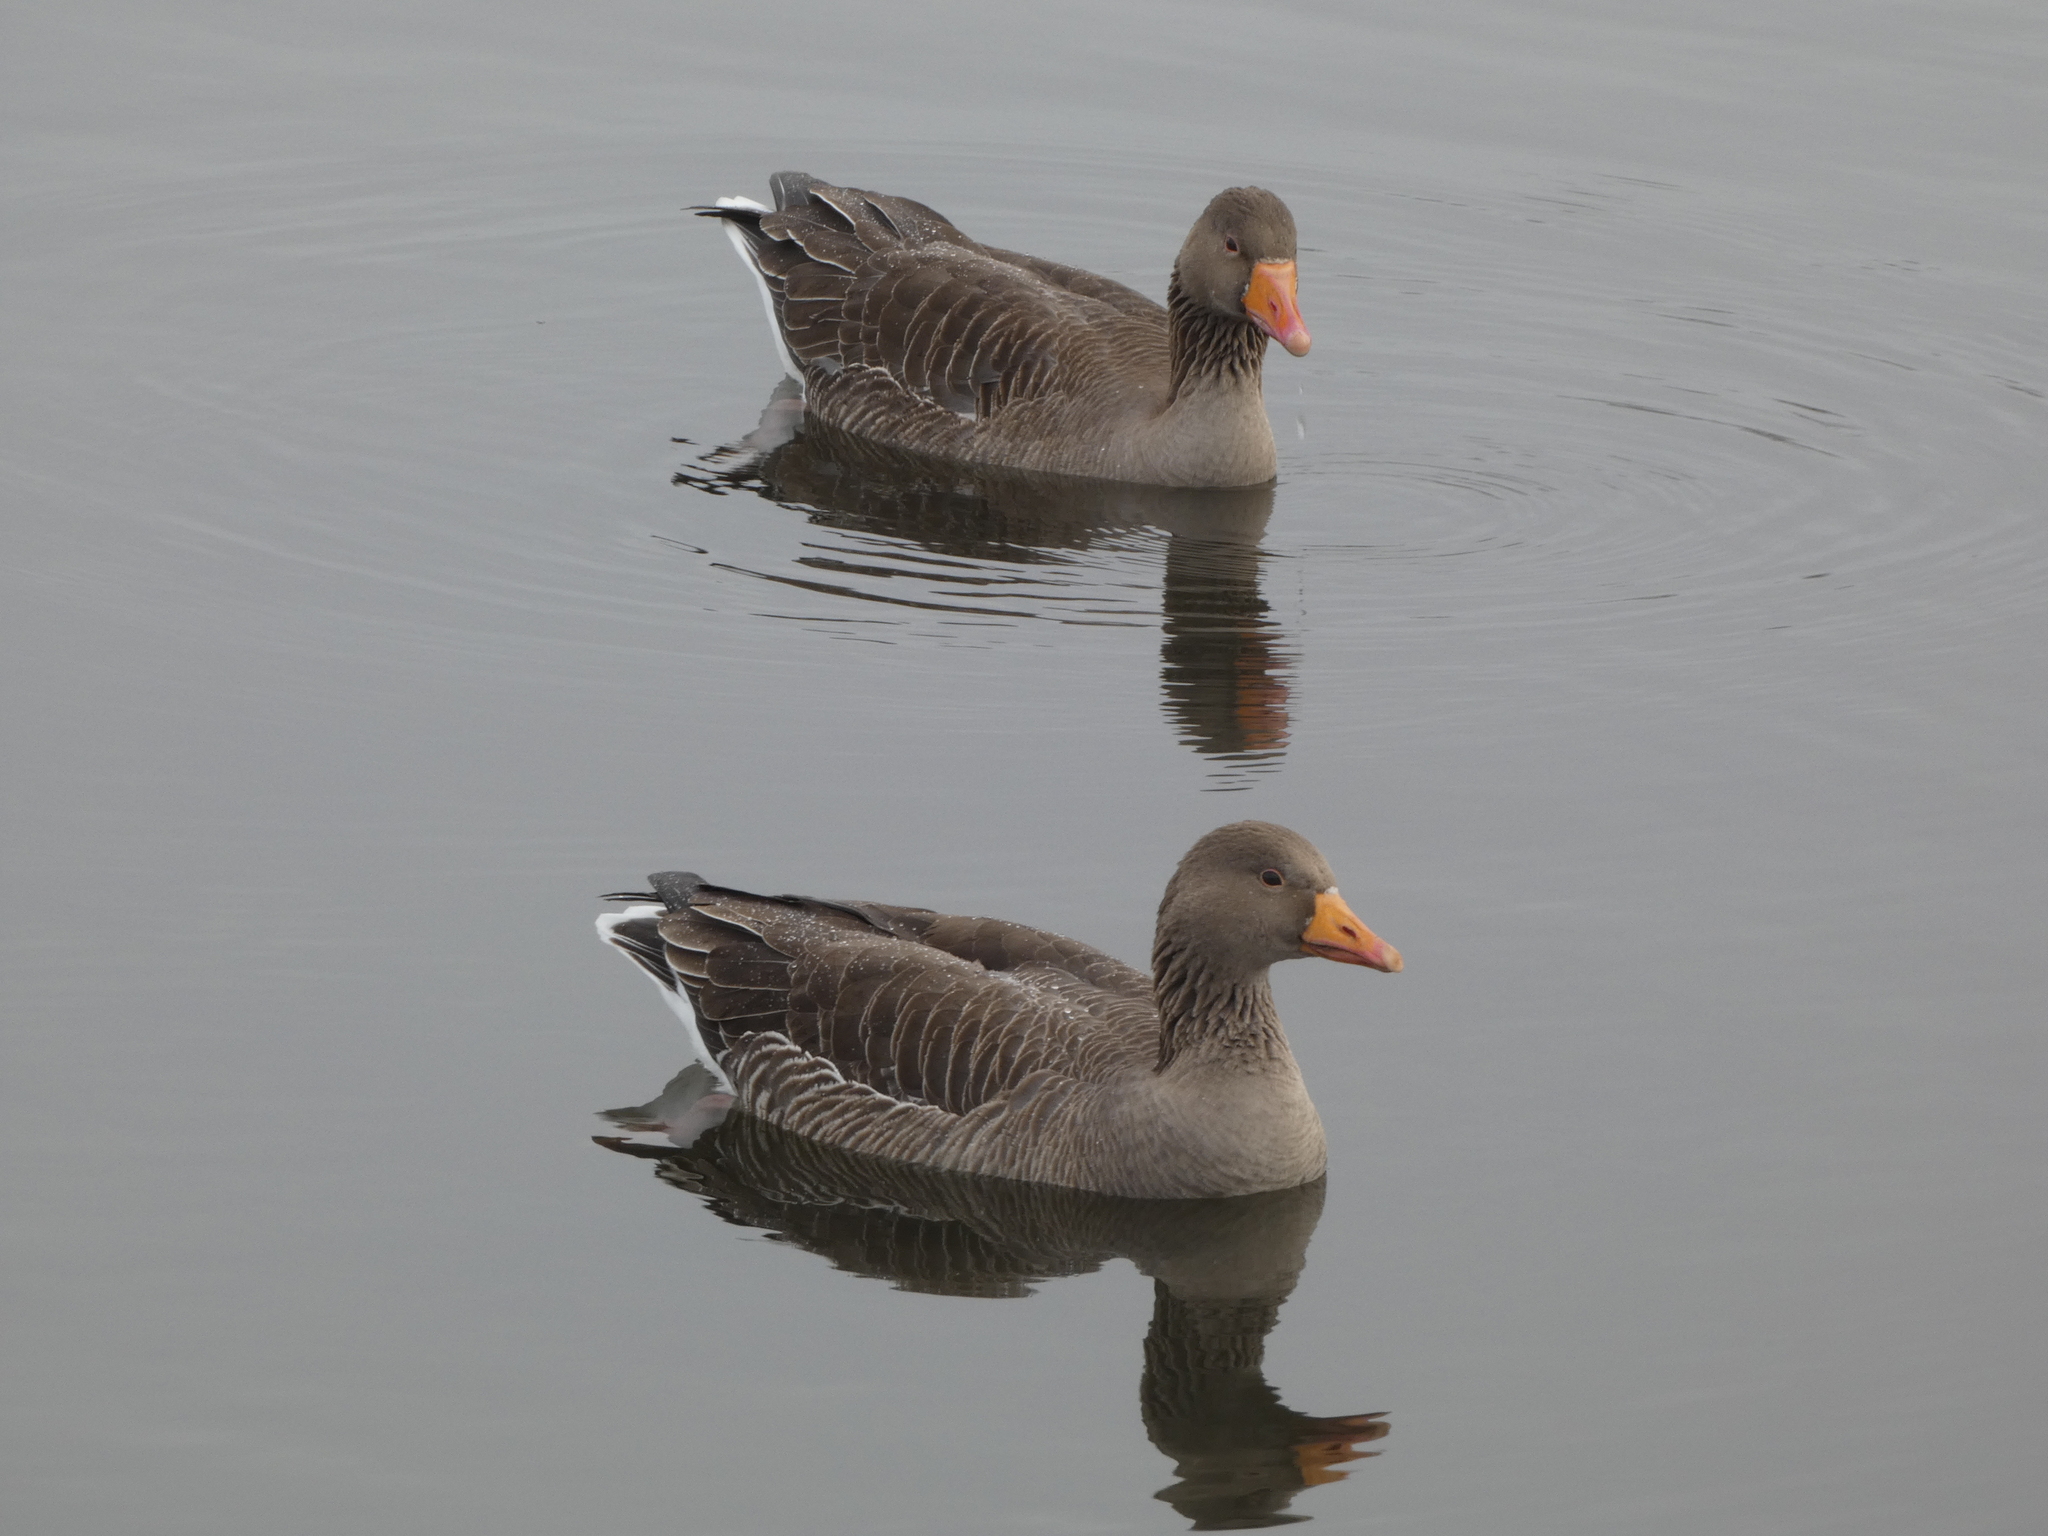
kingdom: Animalia
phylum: Chordata
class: Aves
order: Anseriformes
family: Anatidae
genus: Anser
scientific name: Anser anser
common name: Greylag goose
